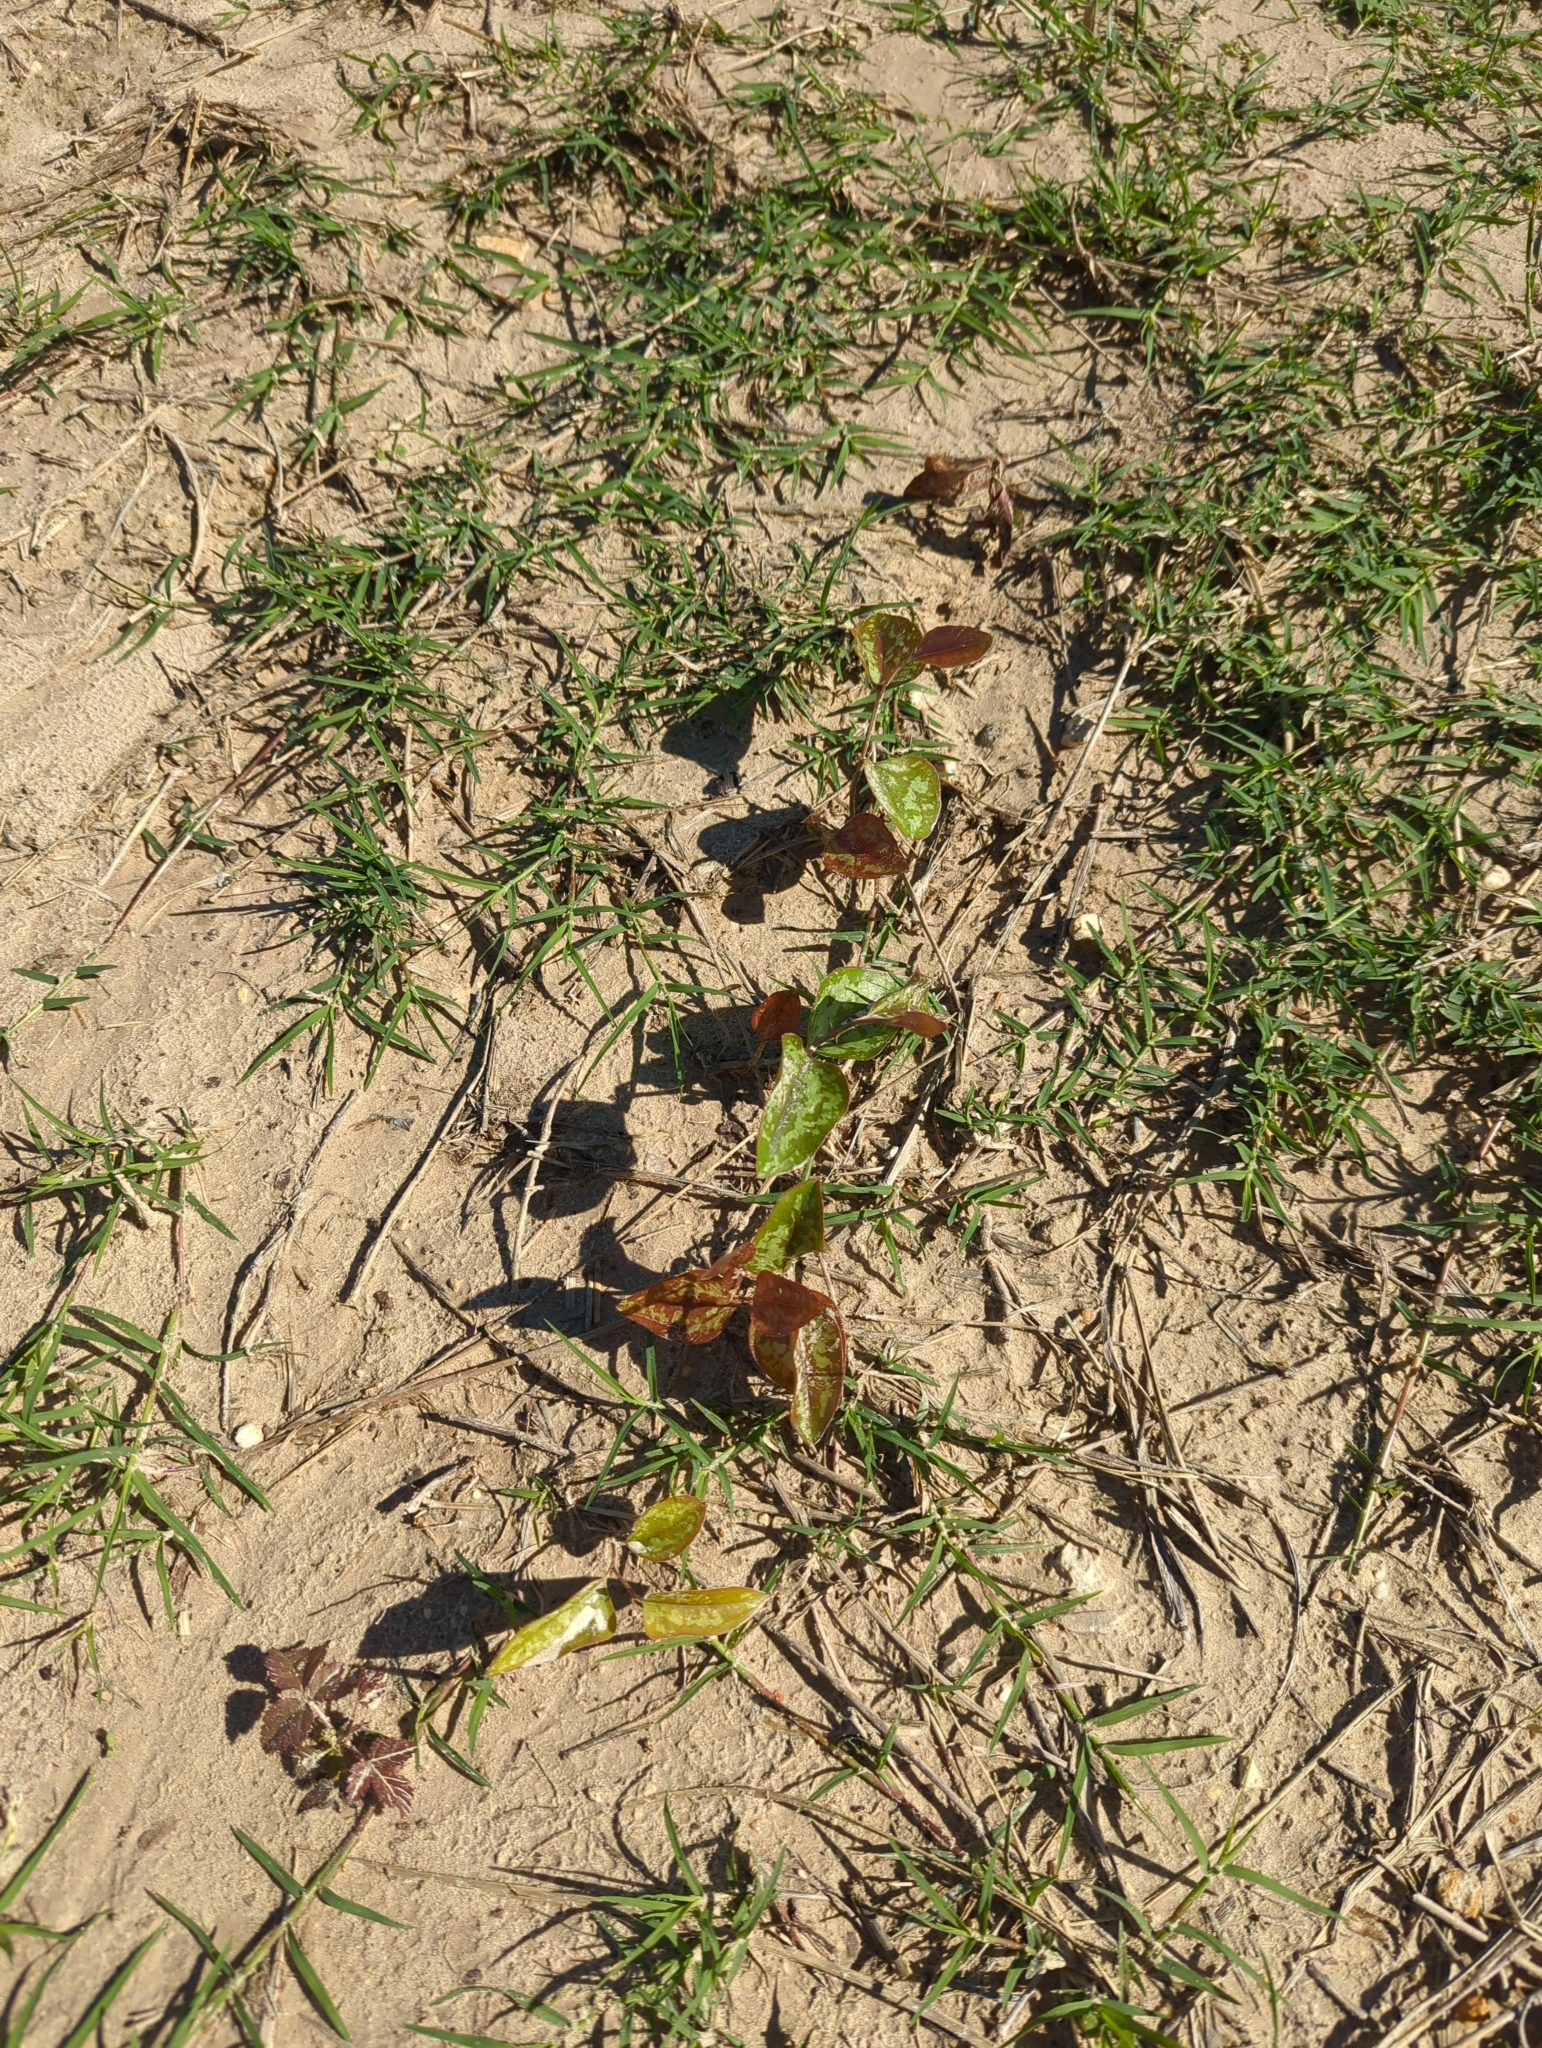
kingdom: Plantae
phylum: Tracheophyta
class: Liliopsida
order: Liliales
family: Smilacaceae
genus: Smilax
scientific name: Smilax bona-nox
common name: Catbrier
